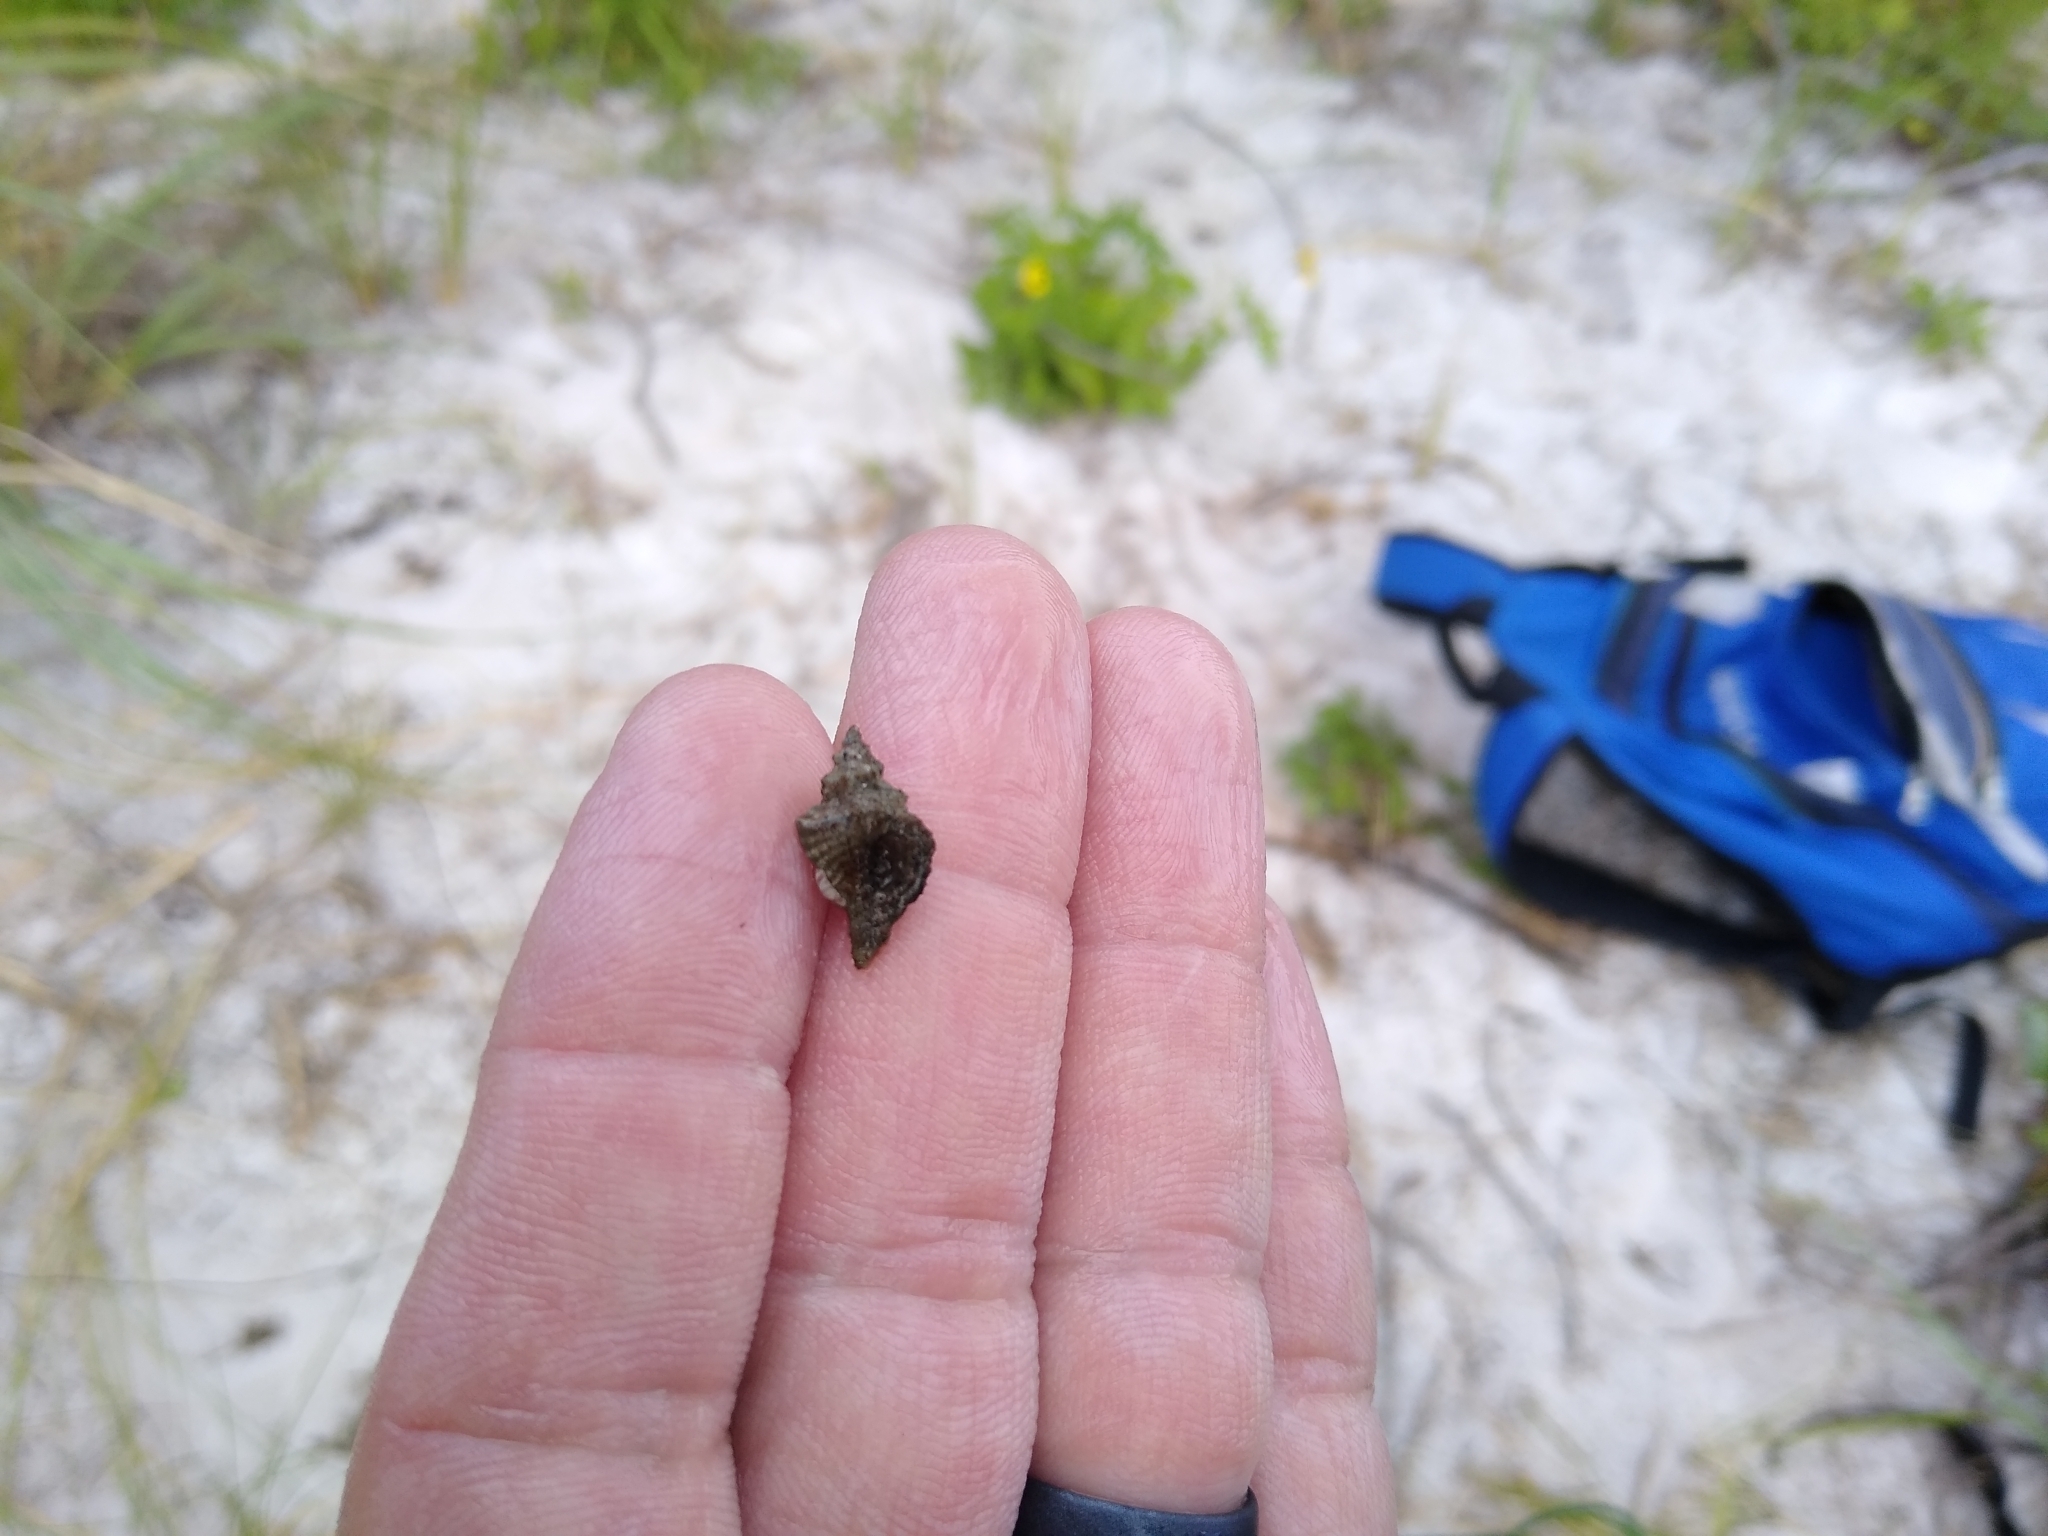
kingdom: Animalia
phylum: Mollusca
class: Gastropoda
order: Neogastropoda
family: Muricidae
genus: Eupleura
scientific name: Eupleura sulcidentata
